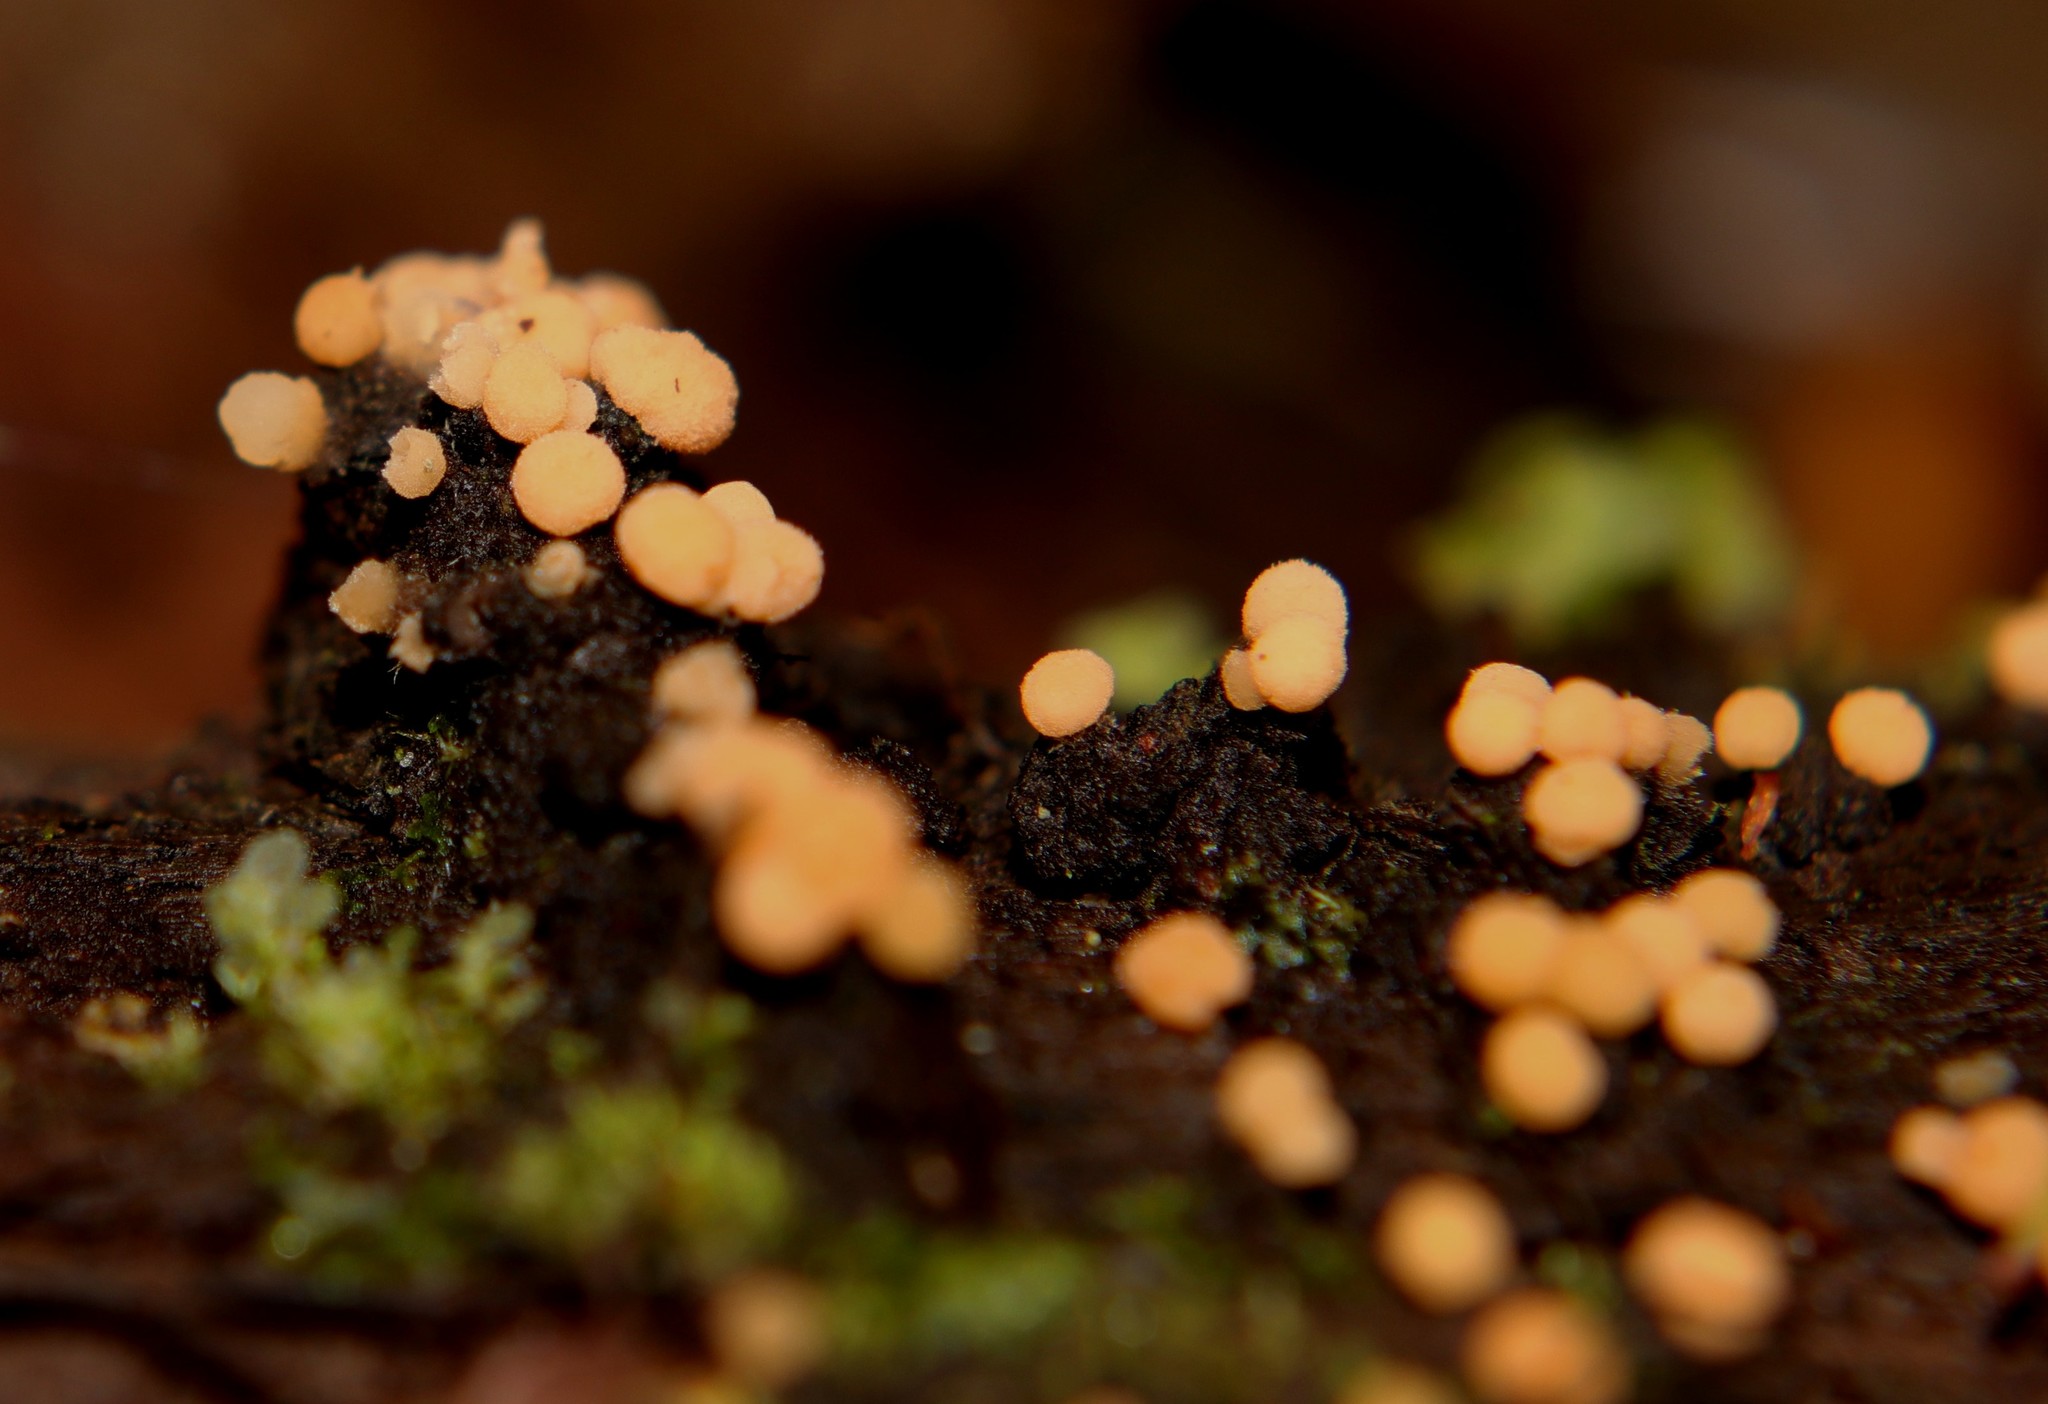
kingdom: Fungi
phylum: Ascomycota
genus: Bactridium
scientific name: Bactridium clavatum
